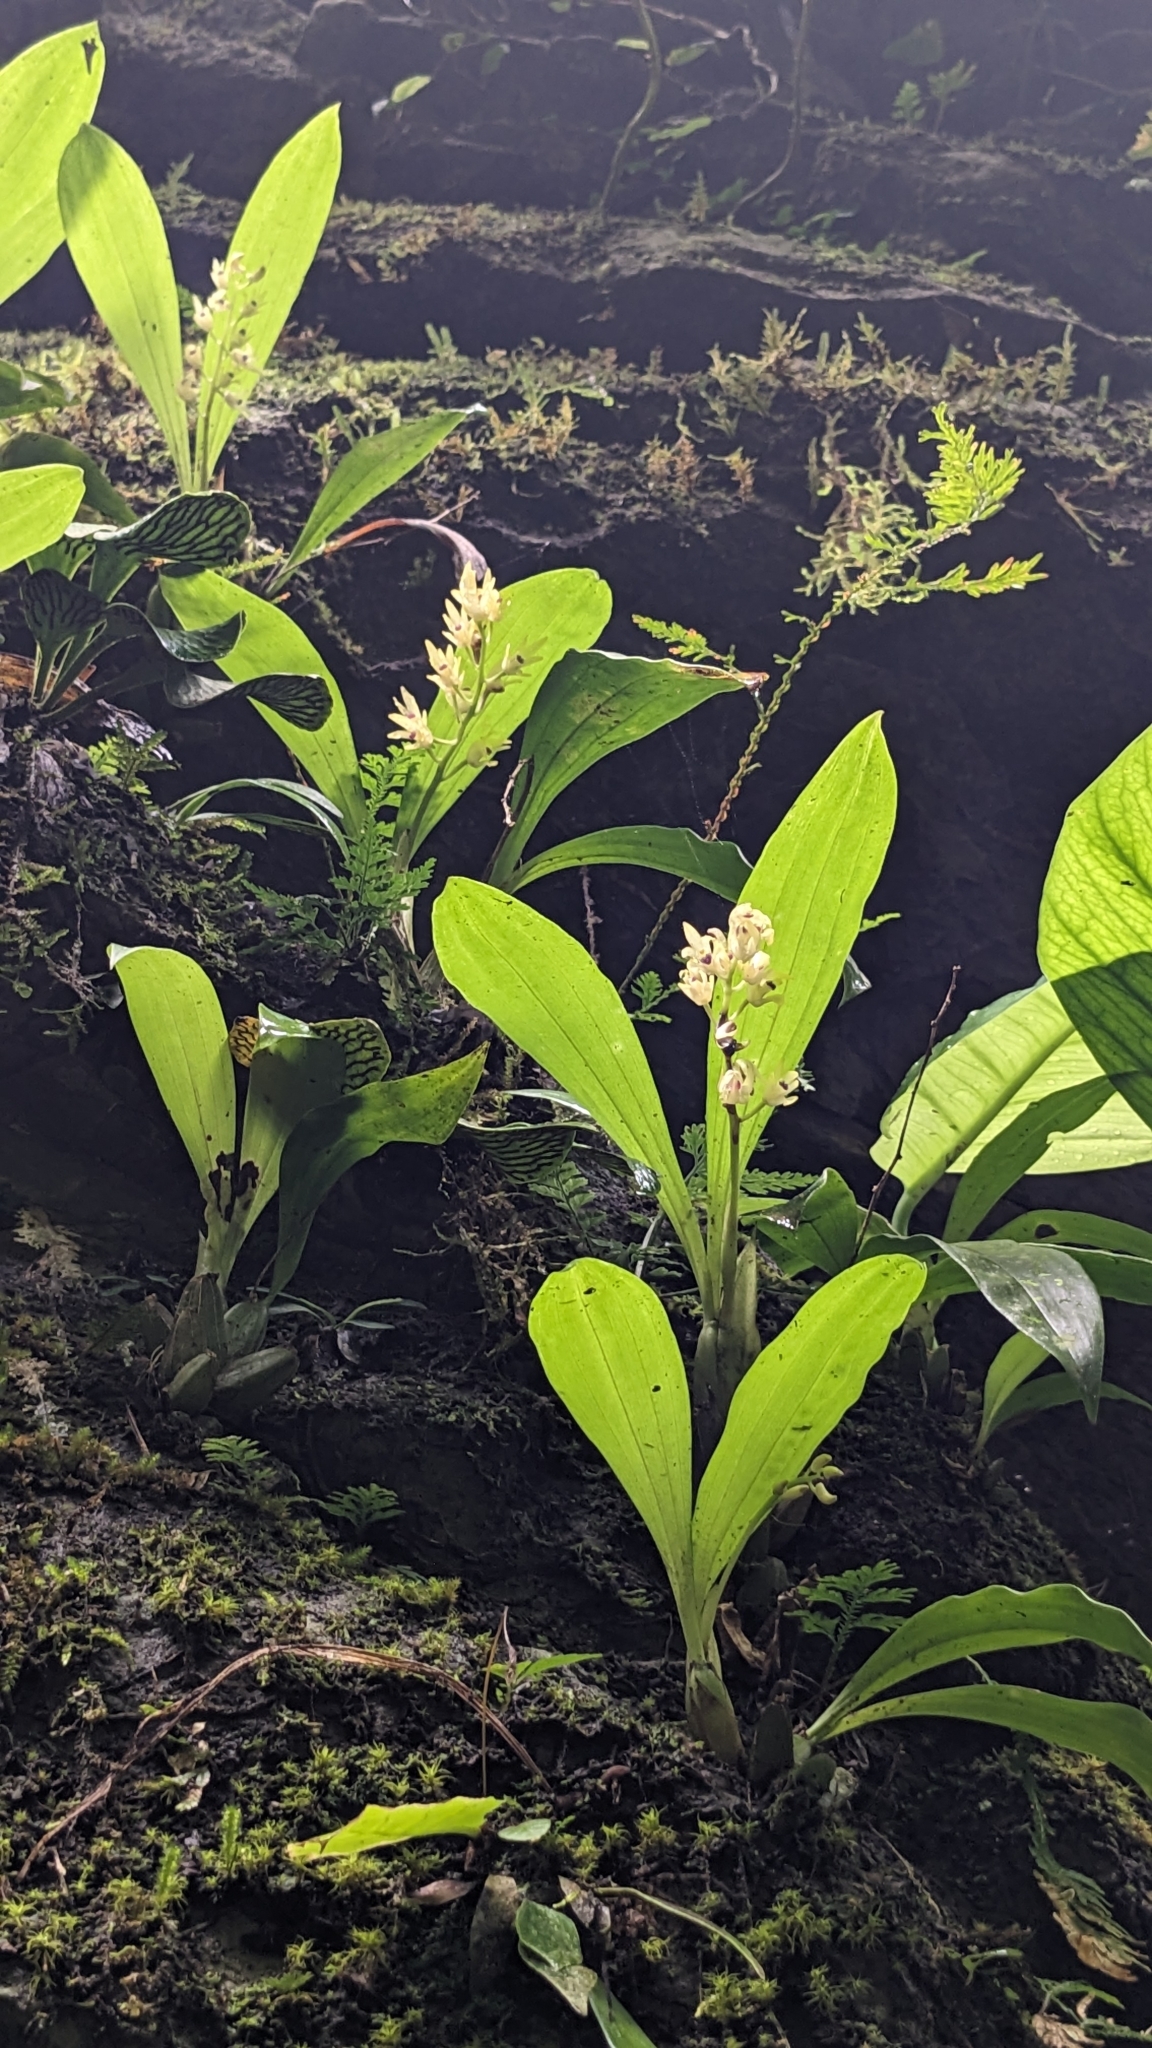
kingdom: Plantae
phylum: Tracheophyta
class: Liliopsida
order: Asparagales
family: Orchidaceae
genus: Eria
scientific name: Eria scabrilinguis
